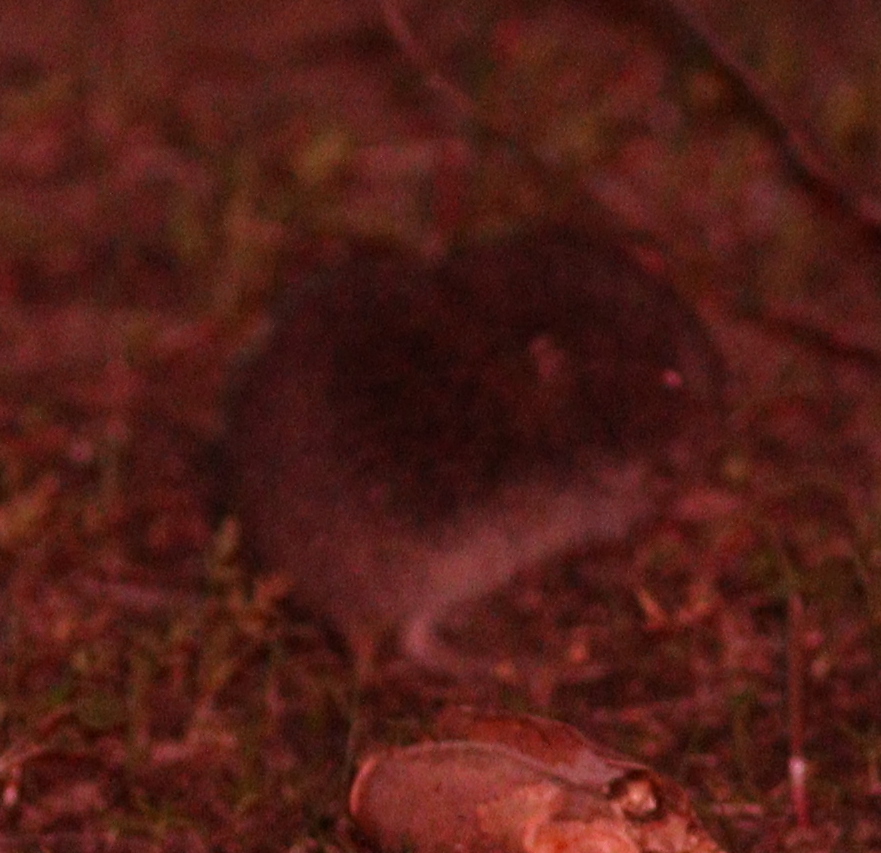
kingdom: Animalia
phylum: Chordata
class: Mammalia
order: Rodentia
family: Cricetidae
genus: Microtus
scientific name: Microtus lusitanicus
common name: Lusitanian pine vole
